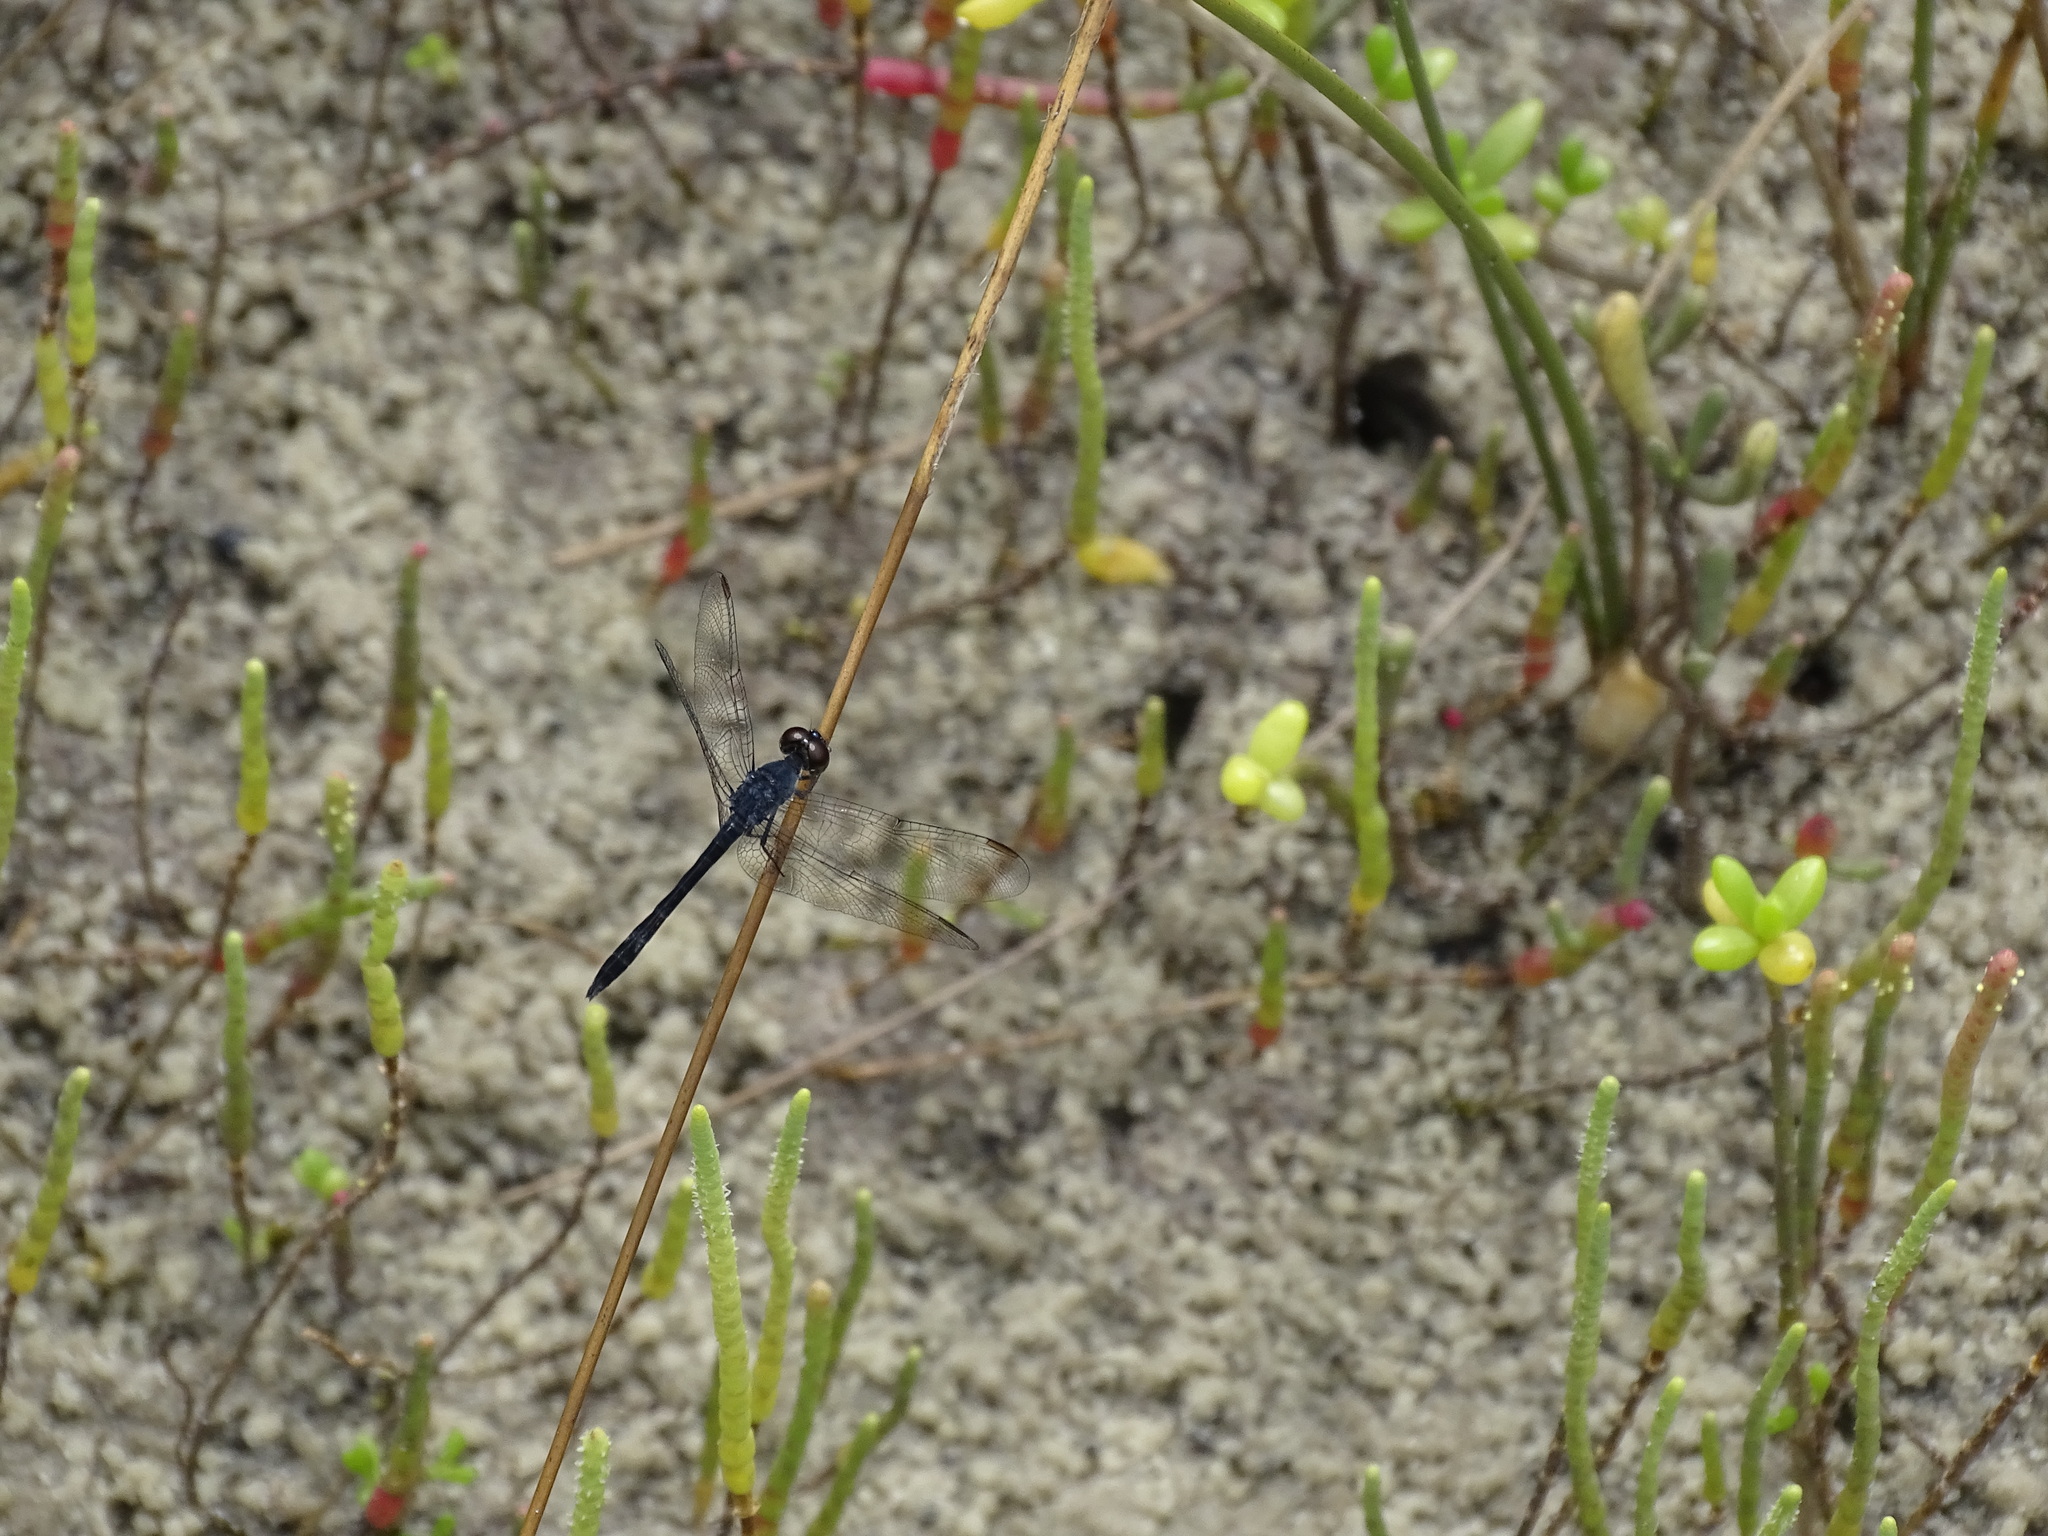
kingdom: Animalia
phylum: Arthropoda
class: Insecta
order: Odonata
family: Libellulidae
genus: Erythrodiplax
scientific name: Erythrodiplax berenice
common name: Seaside dragonlet
